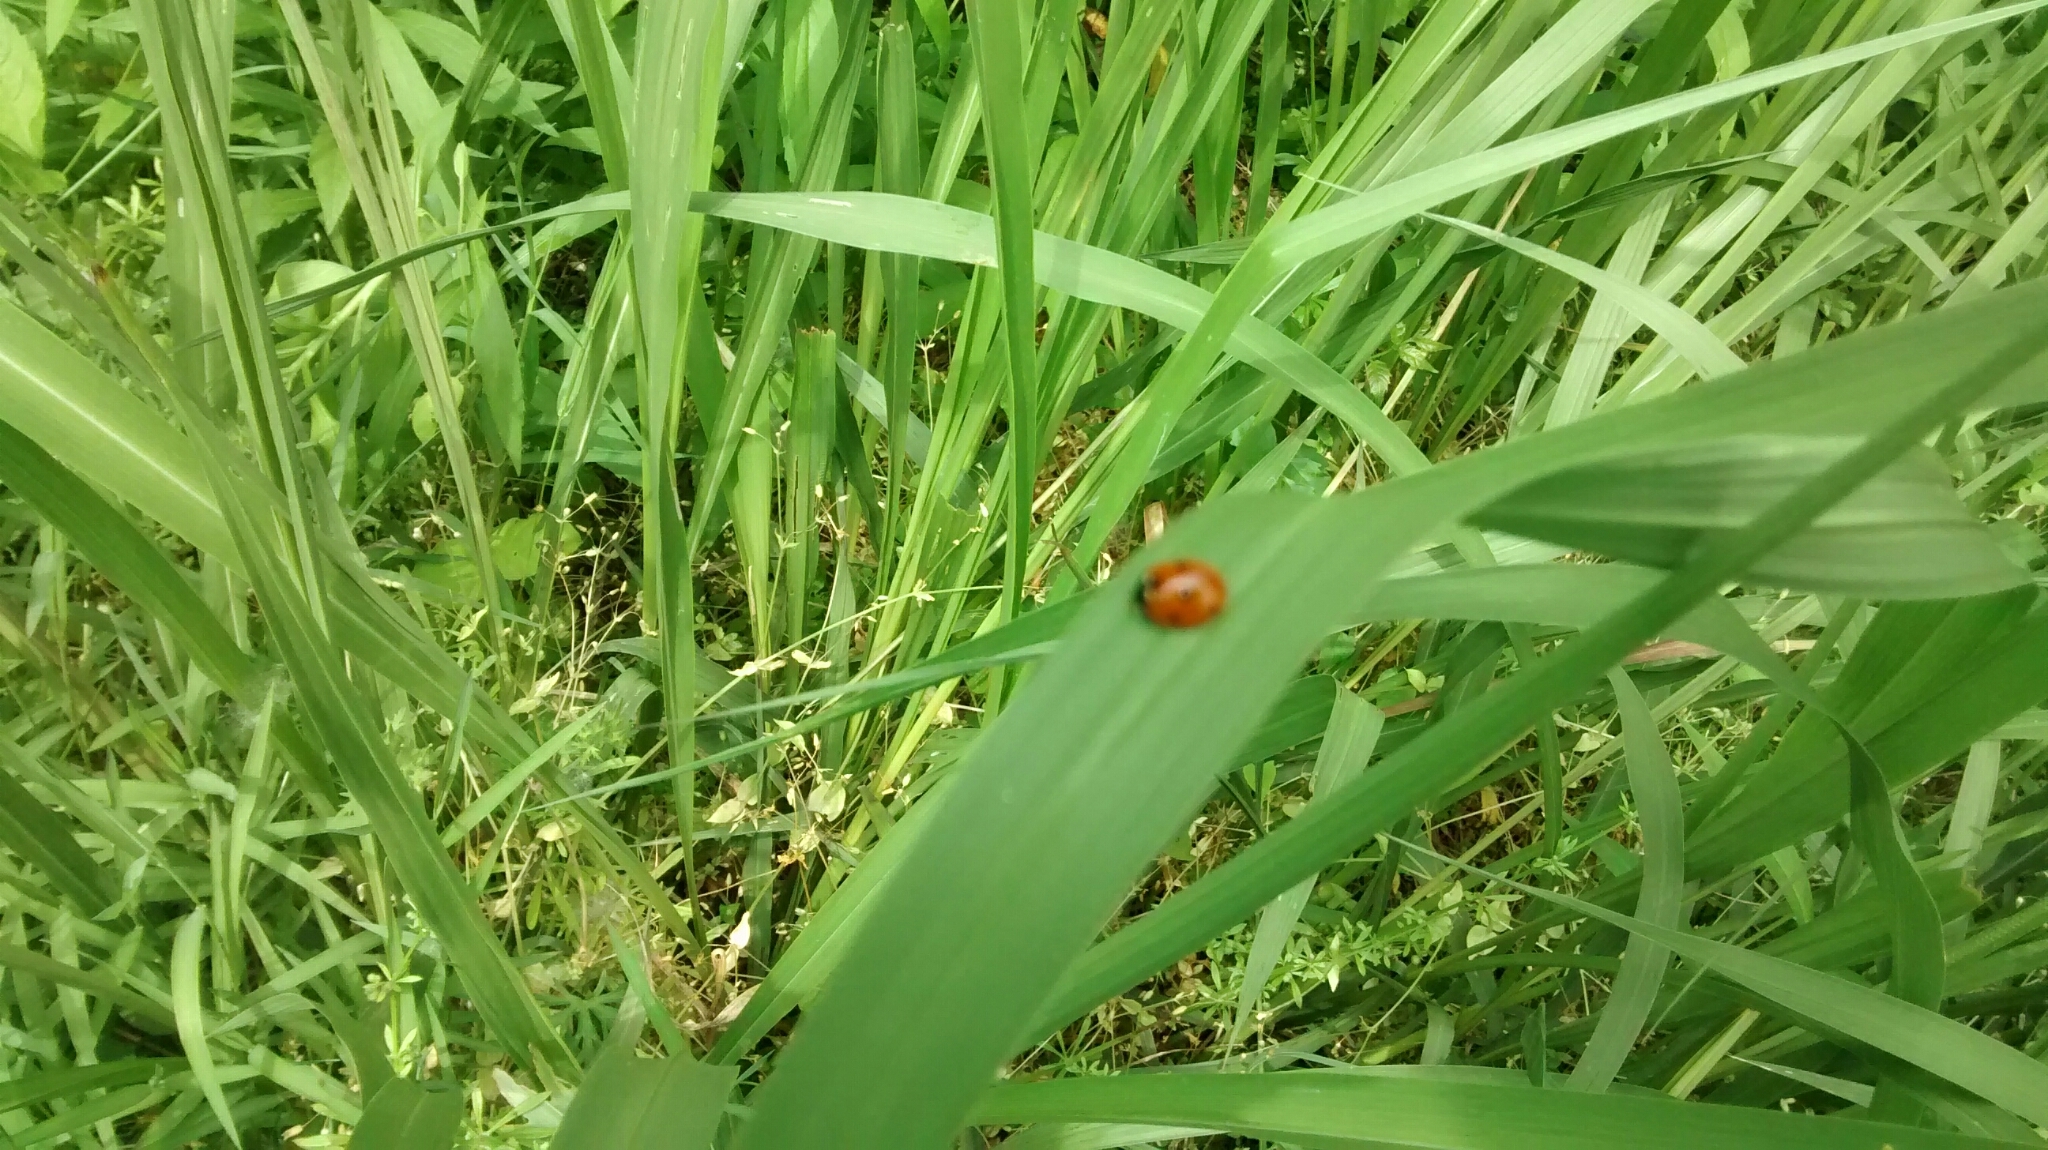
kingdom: Animalia
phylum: Arthropoda
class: Insecta
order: Coleoptera
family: Coccinellidae
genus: Coccinella
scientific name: Coccinella septempunctata
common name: Sevenspotted lady beetle
